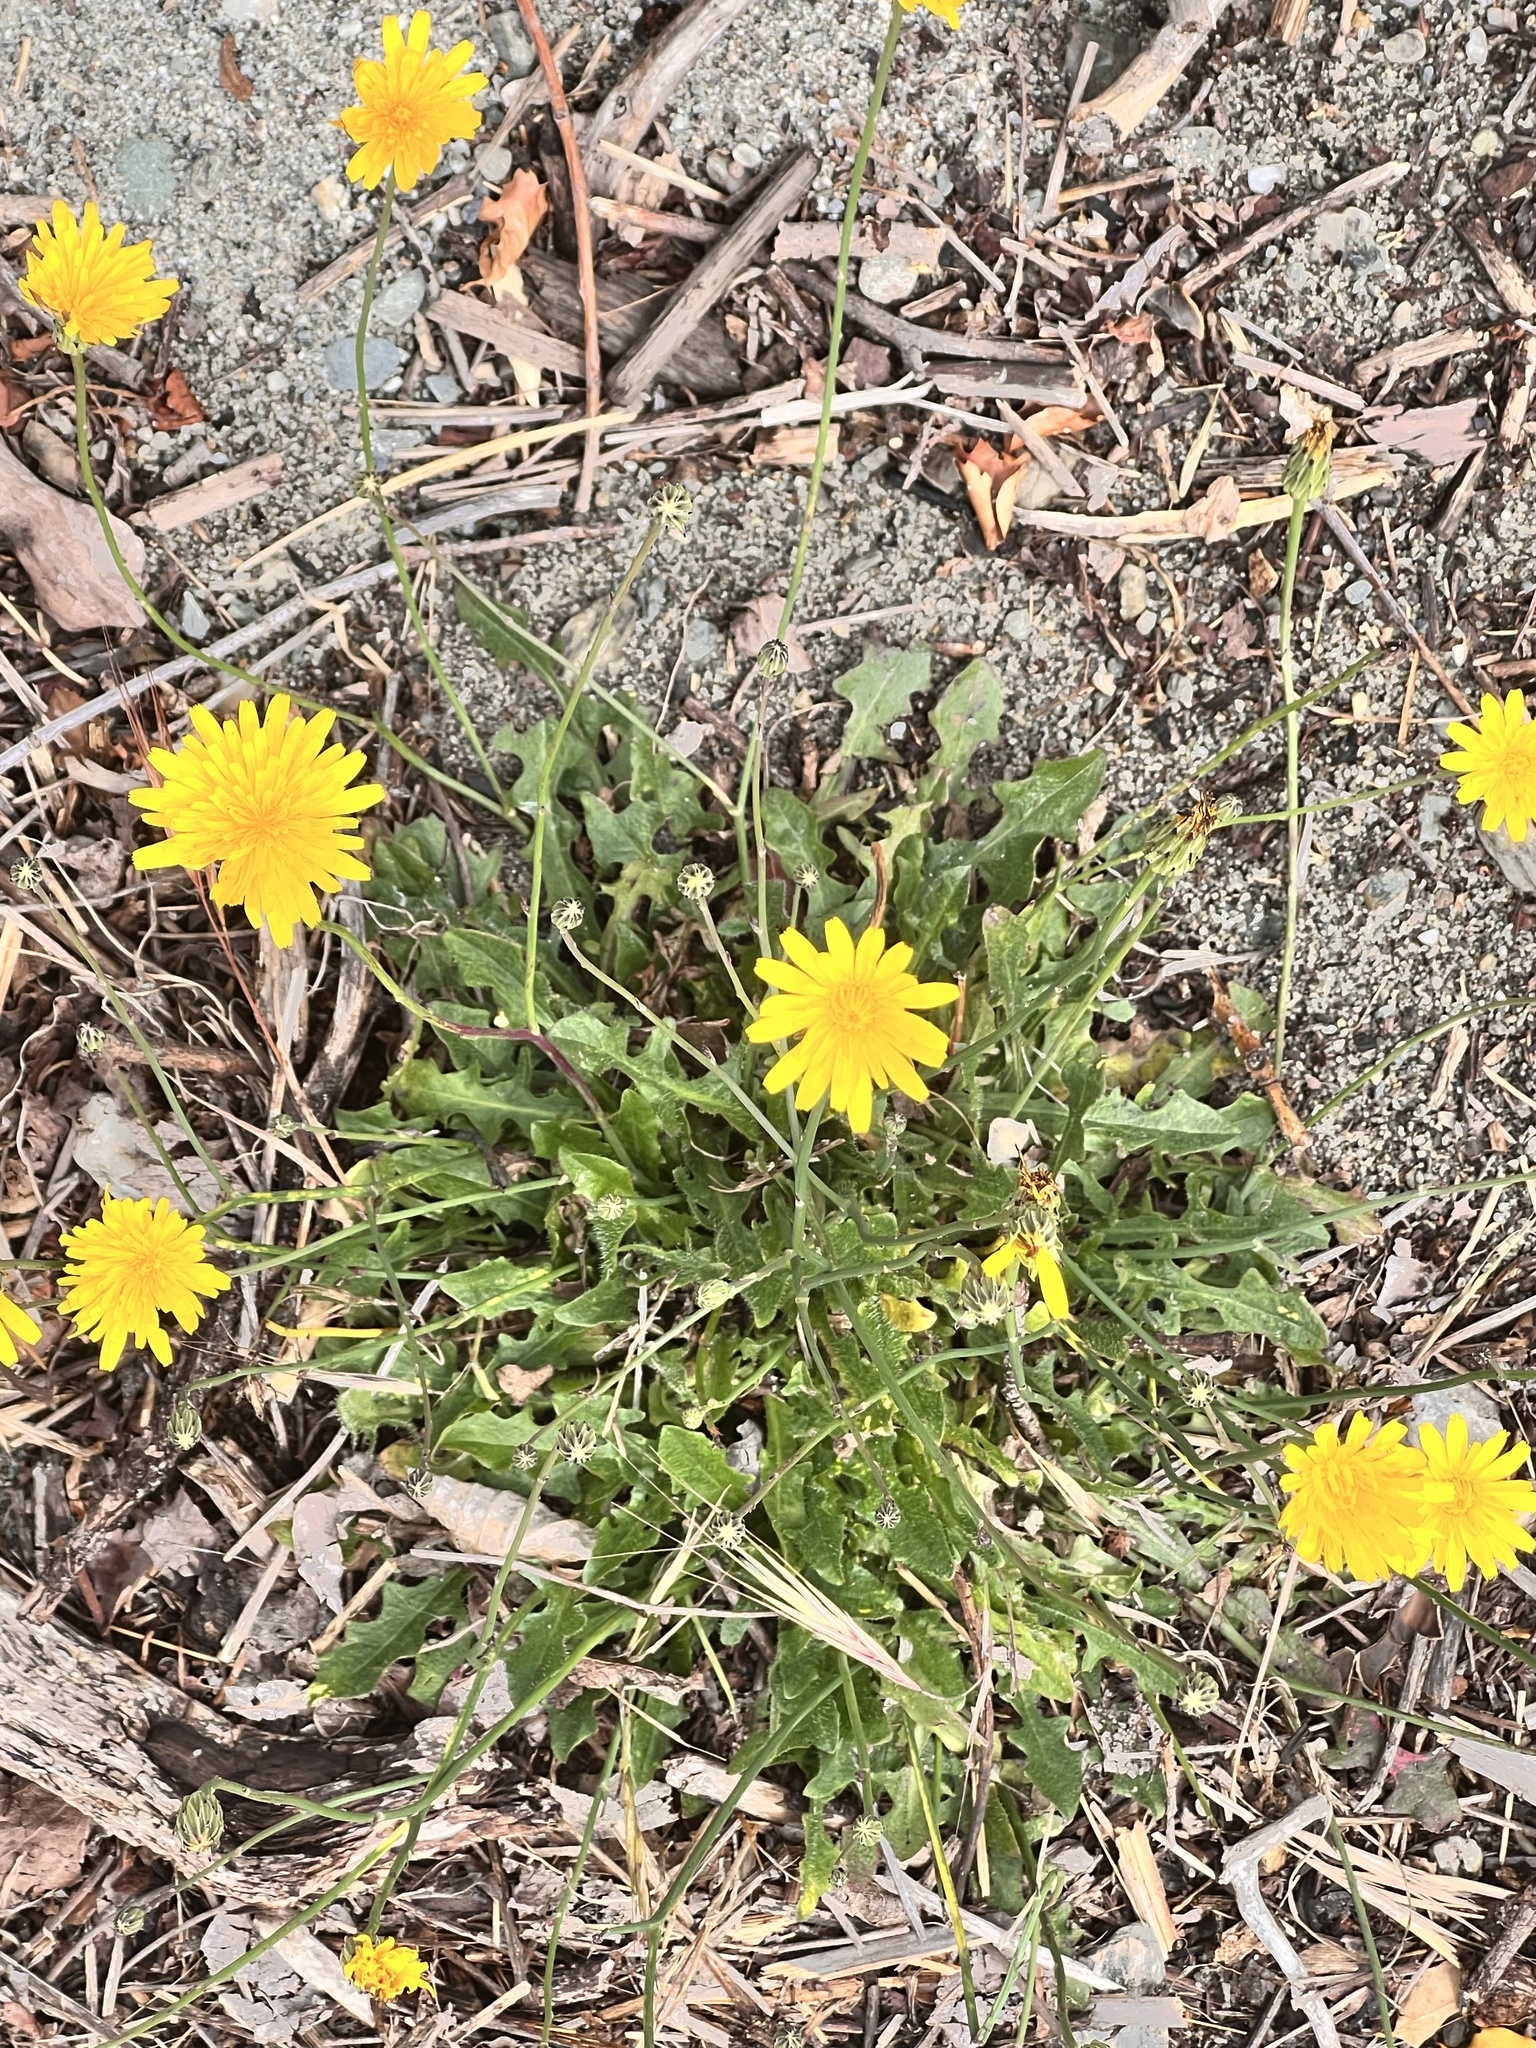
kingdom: Plantae
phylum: Tracheophyta
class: Magnoliopsida
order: Asterales
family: Asteraceae
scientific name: Asteraceae
